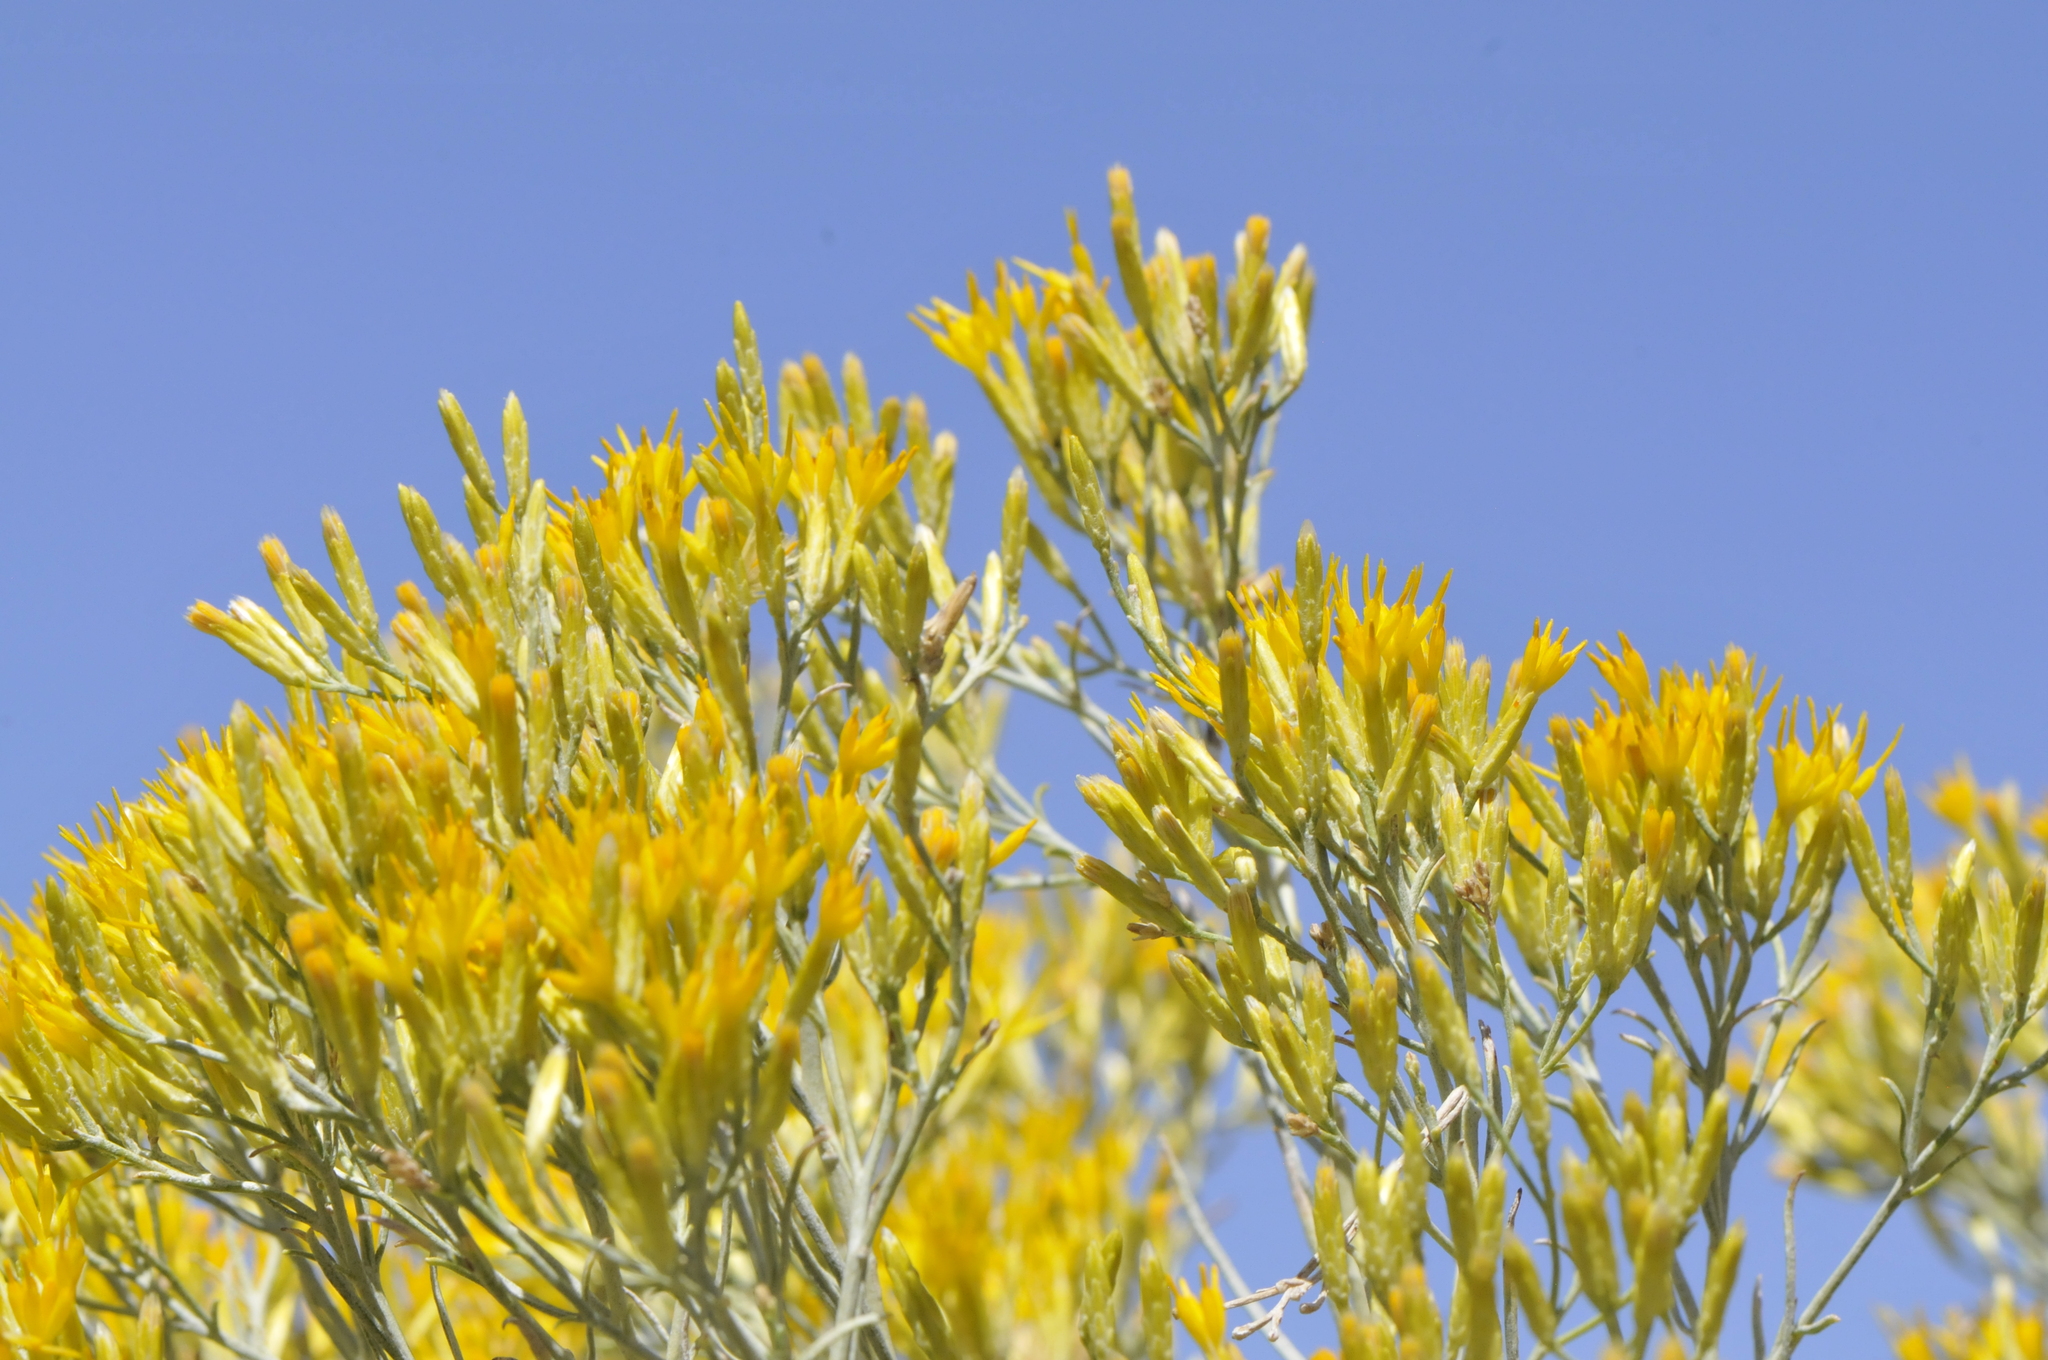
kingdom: Plantae
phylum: Tracheophyta
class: Magnoliopsida
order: Asterales
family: Asteraceae
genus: Ericameria
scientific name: Ericameria nauseosa
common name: Rubber rabbitbrush
